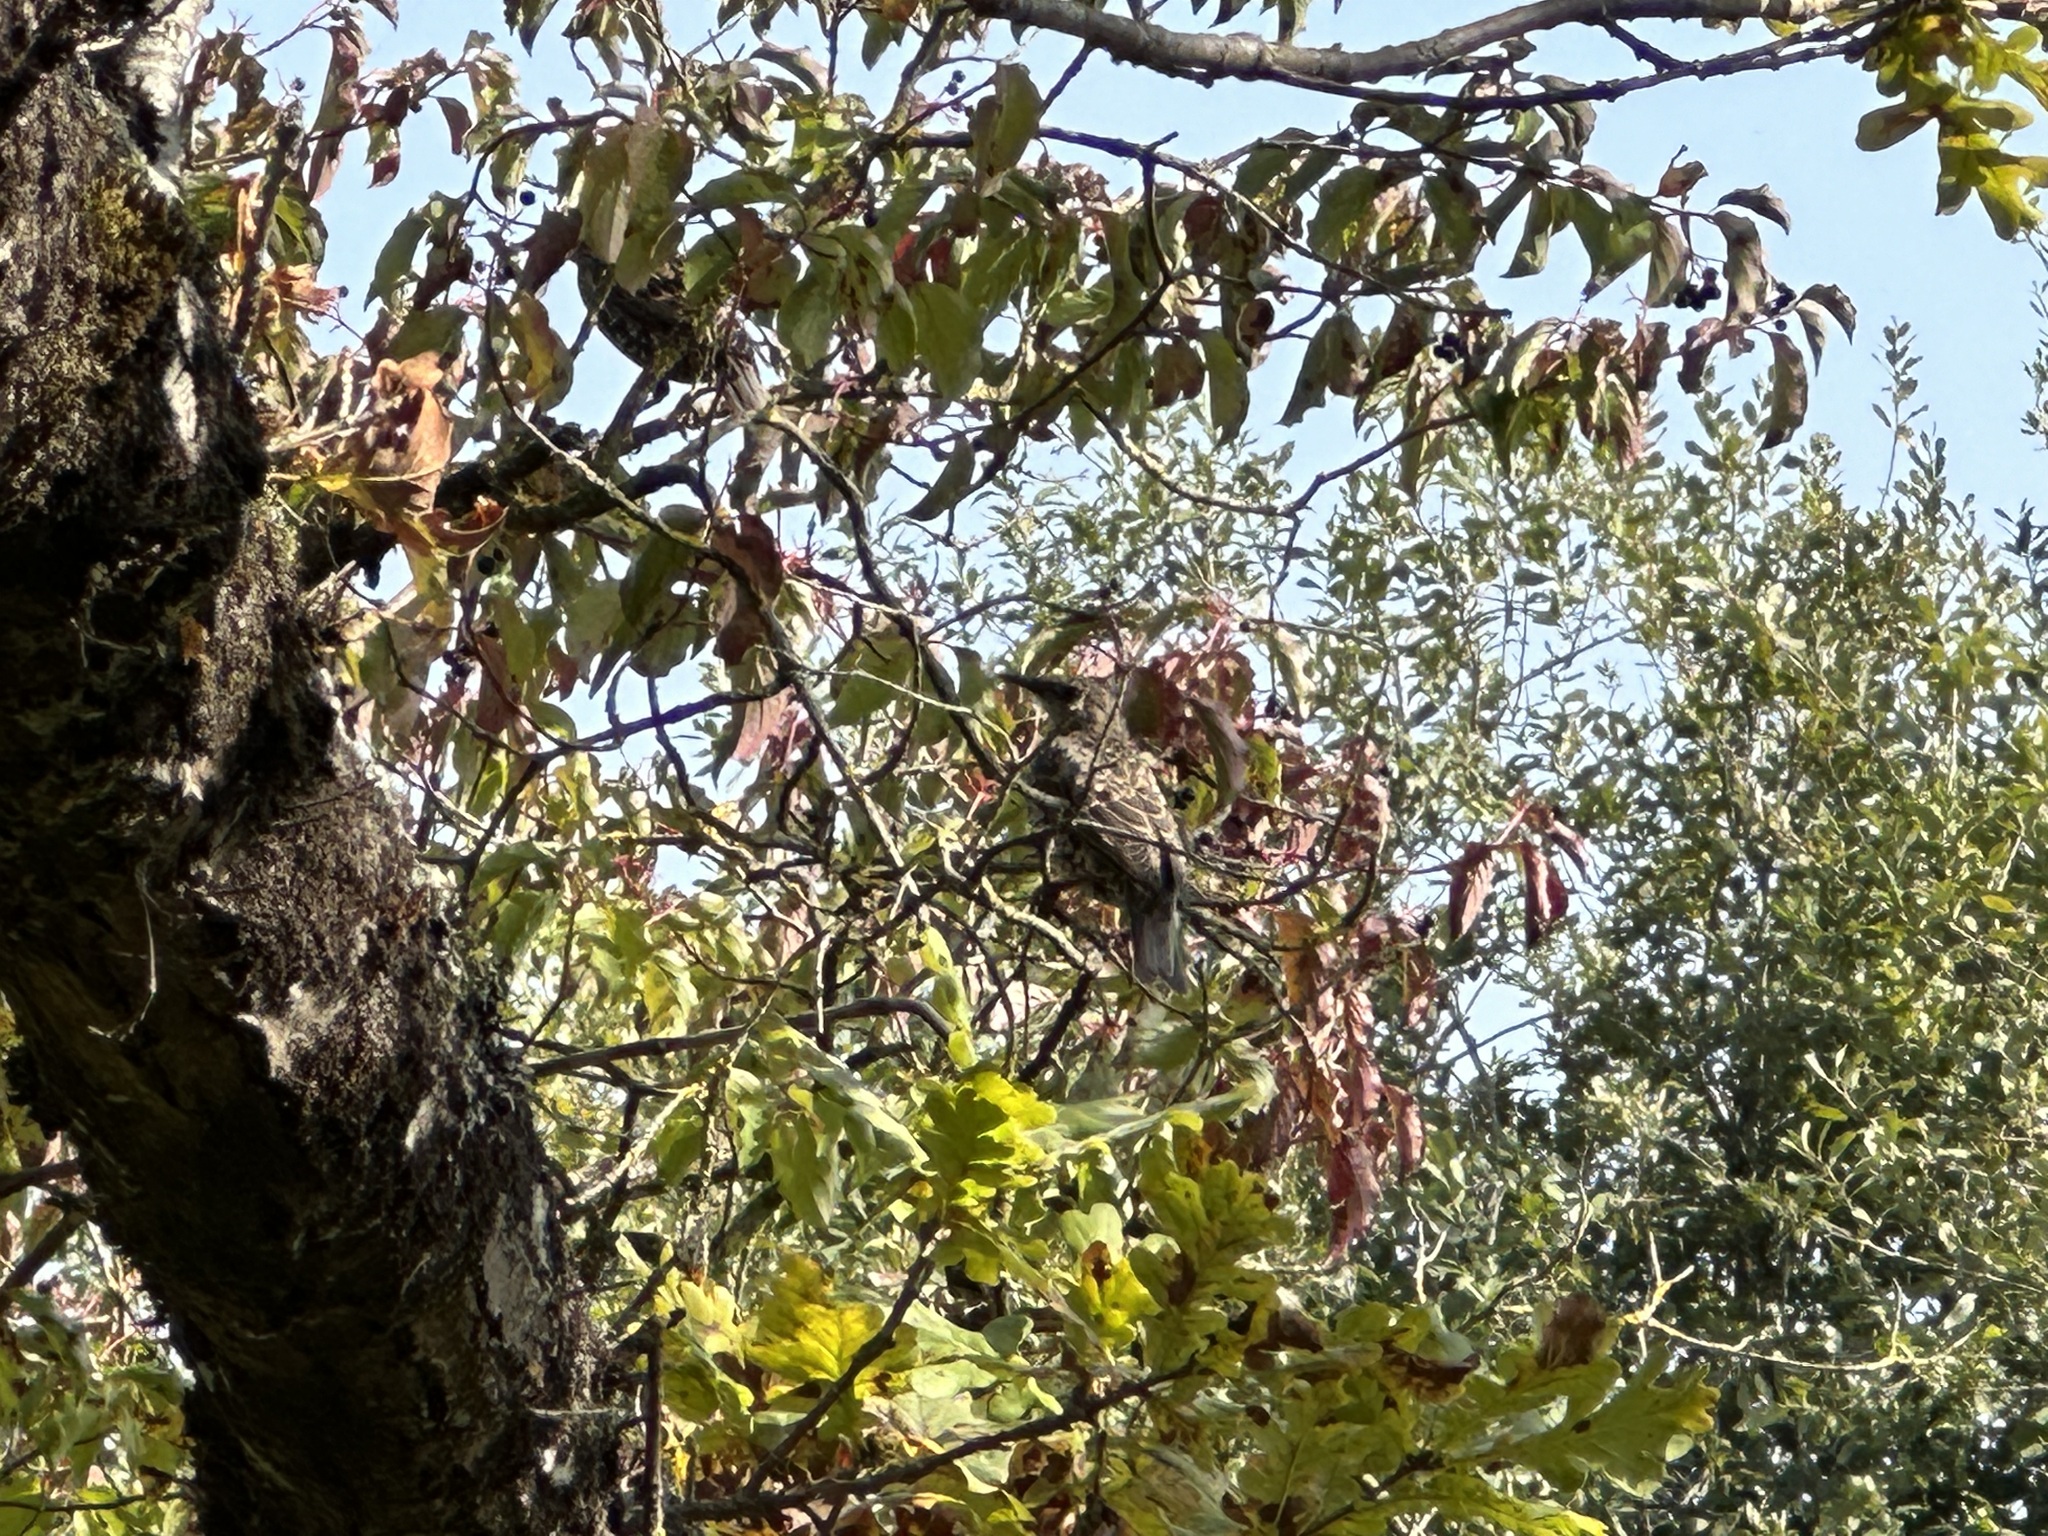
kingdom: Animalia
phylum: Chordata
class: Aves
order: Passeriformes
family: Sturnidae
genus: Sturnus
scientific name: Sturnus vulgaris
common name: Common starling
